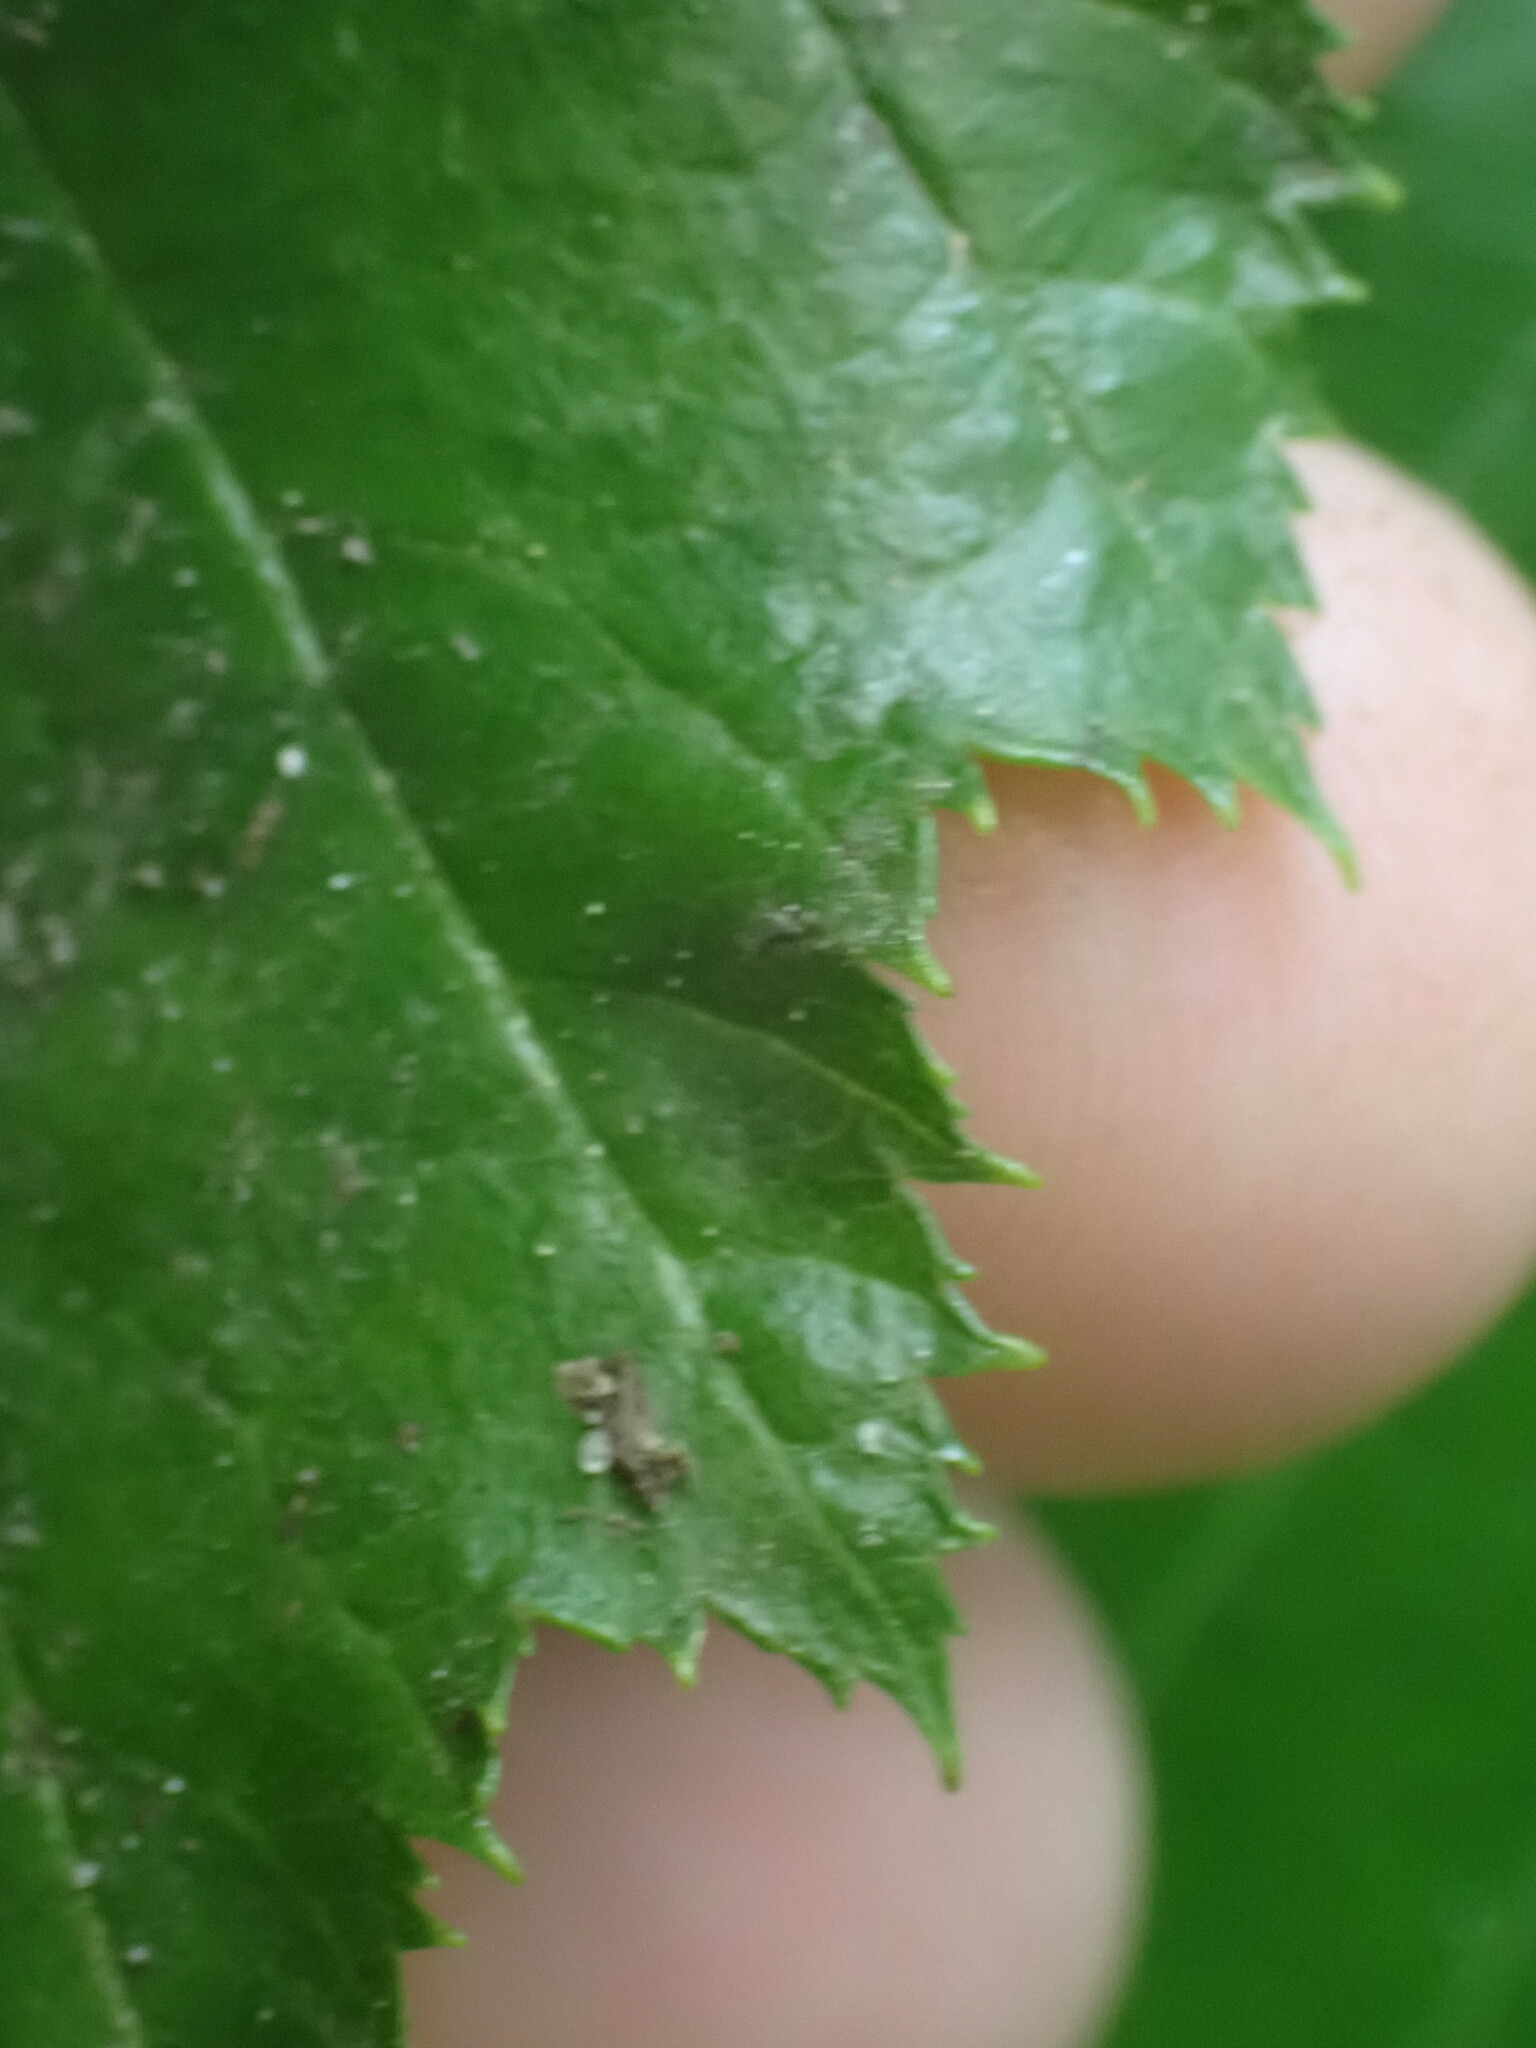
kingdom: Plantae
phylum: Tracheophyta
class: Magnoliopsida
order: Fagales
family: Betulaceae
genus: Alnus
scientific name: Alnus alnobetula
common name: Green alder
